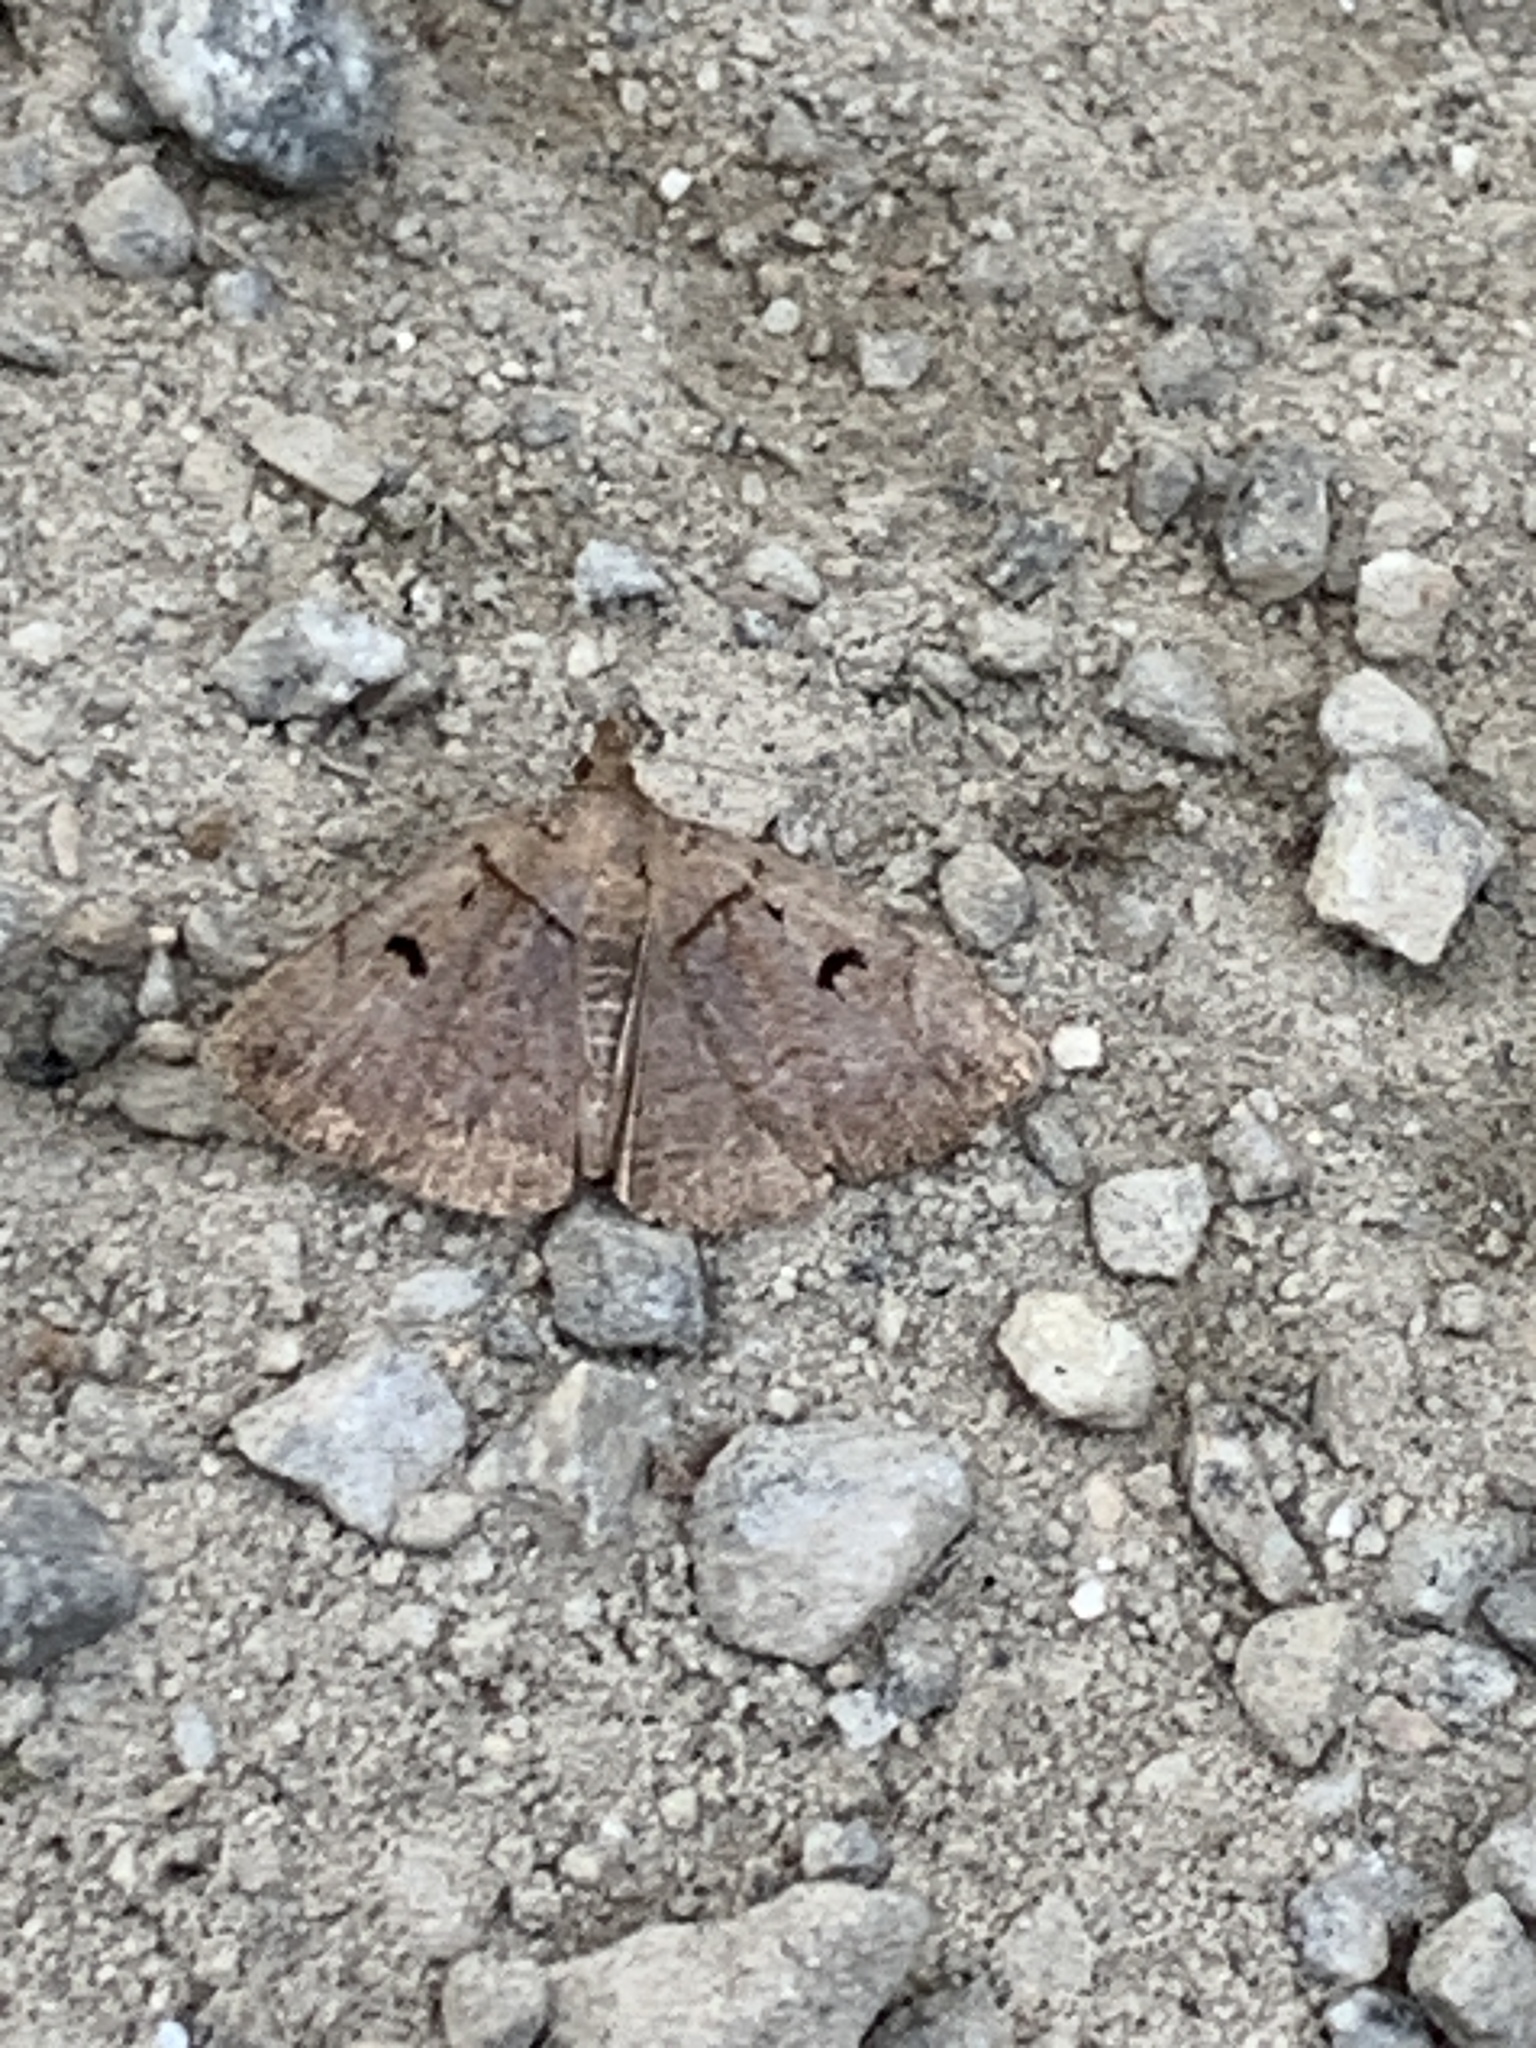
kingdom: Animalia
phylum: Arthropoda
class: Insecta
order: Lepidoptera
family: Erebidae
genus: Zanclognatha
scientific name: Zanclognatha laevigata
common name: Variable fan-foot
